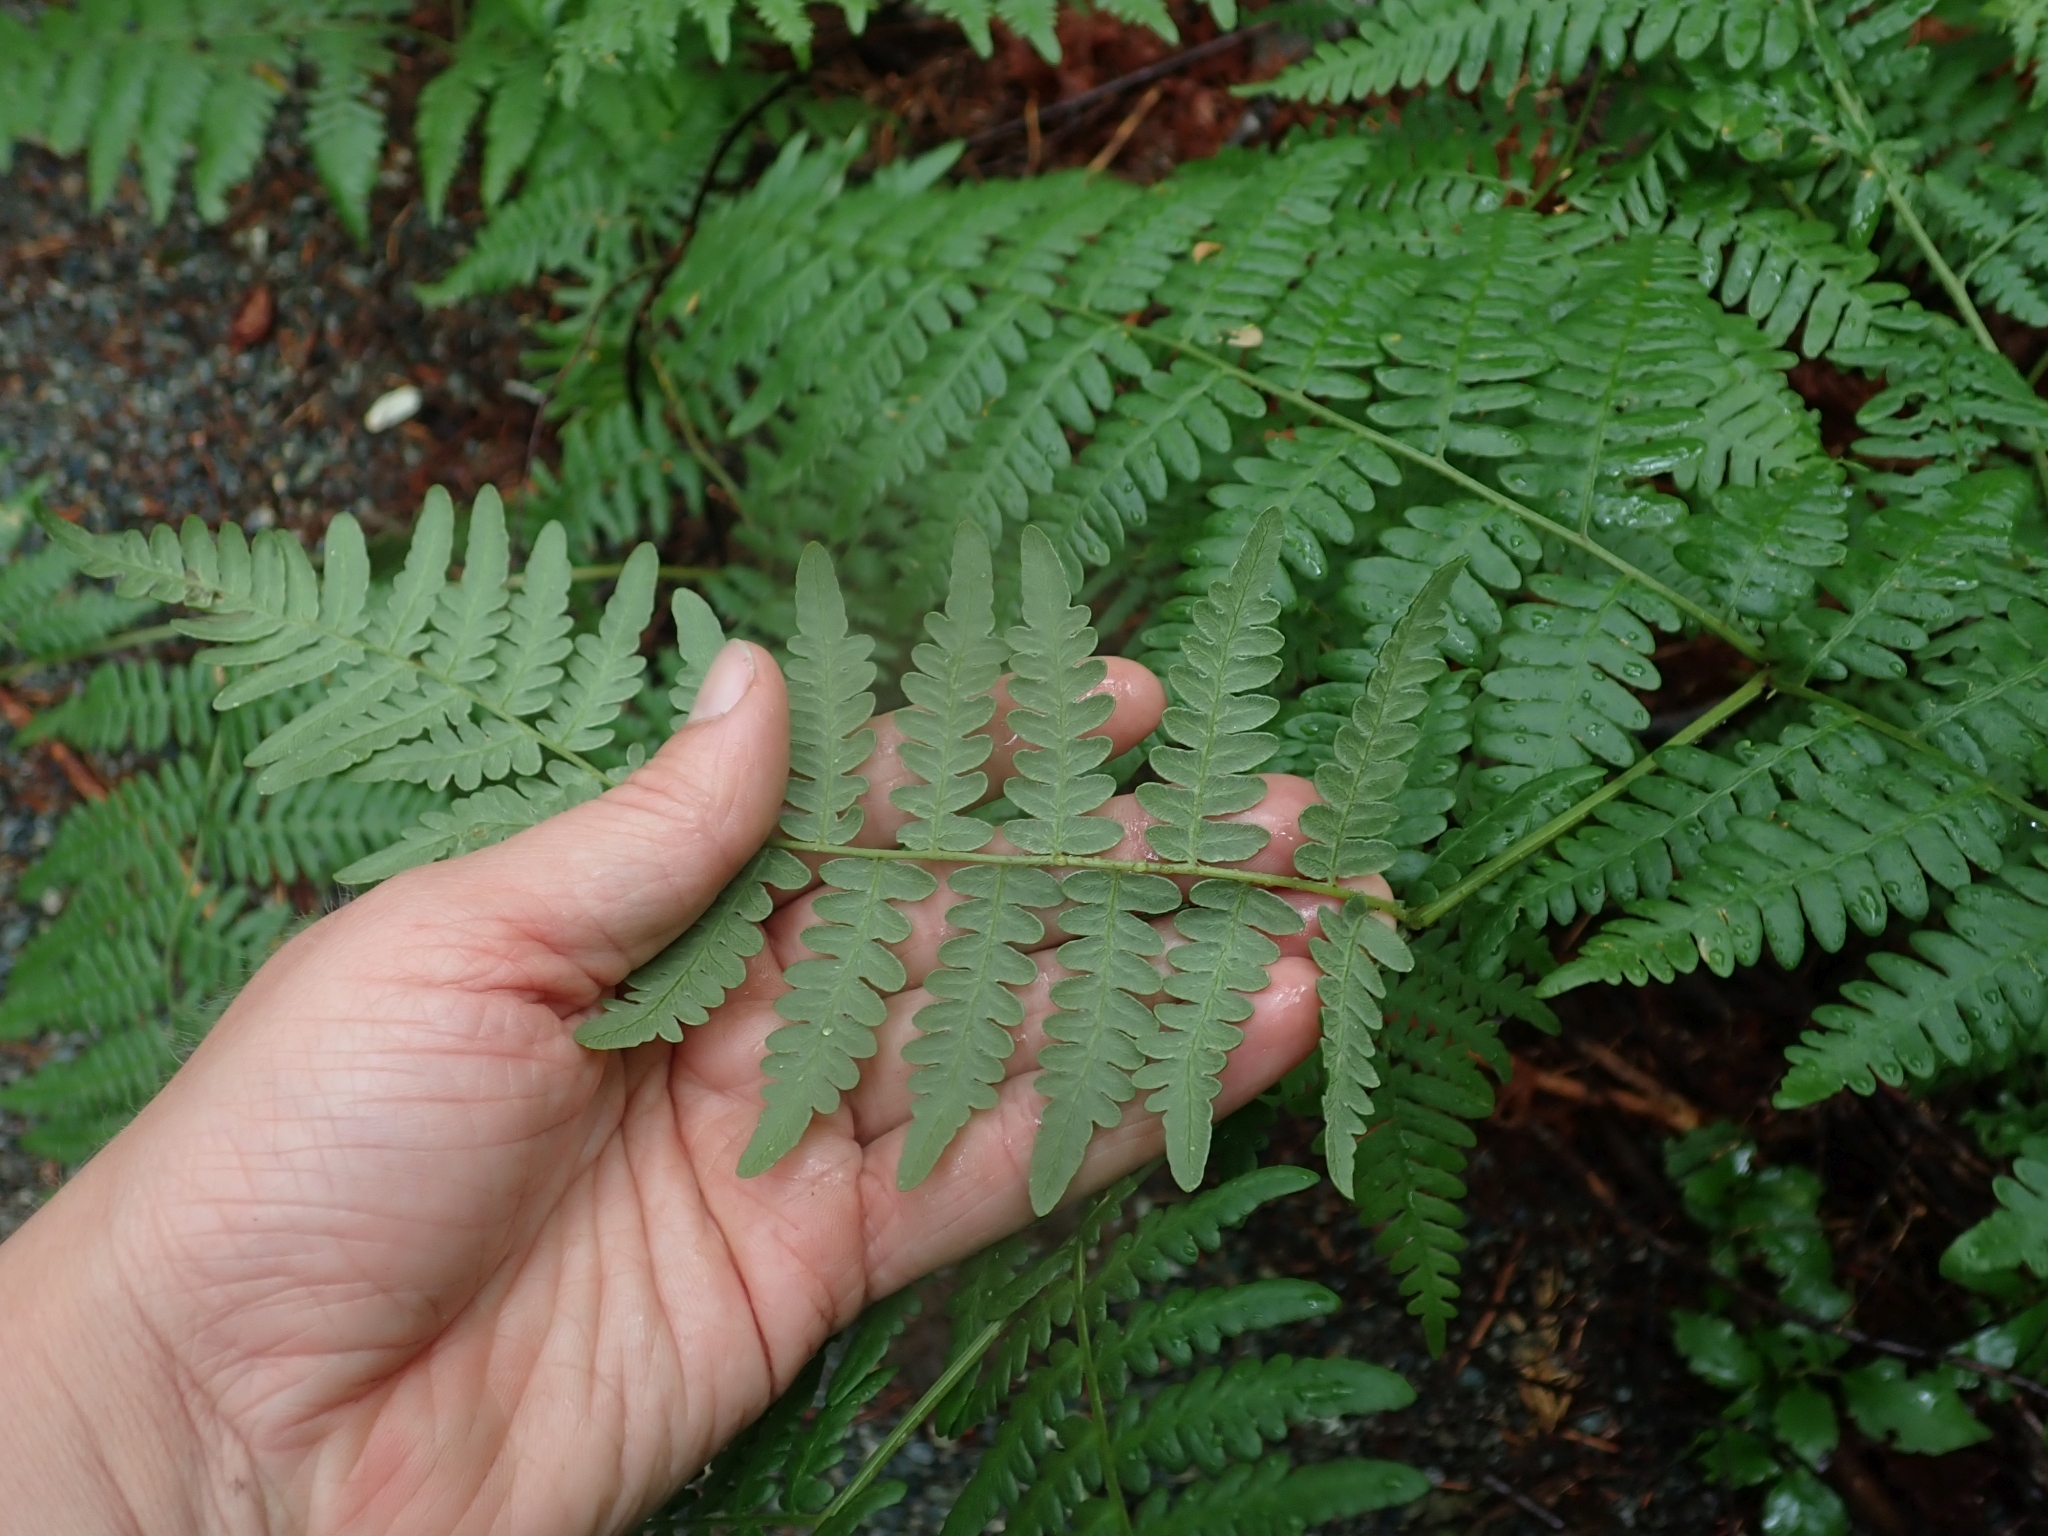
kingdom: Plantae
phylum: Tracheophyta
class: Polypodiopsida
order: Polypodiales
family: Dennstaedtiaceae
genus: Pteridium
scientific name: Pteridium aquilinum
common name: Bracken
